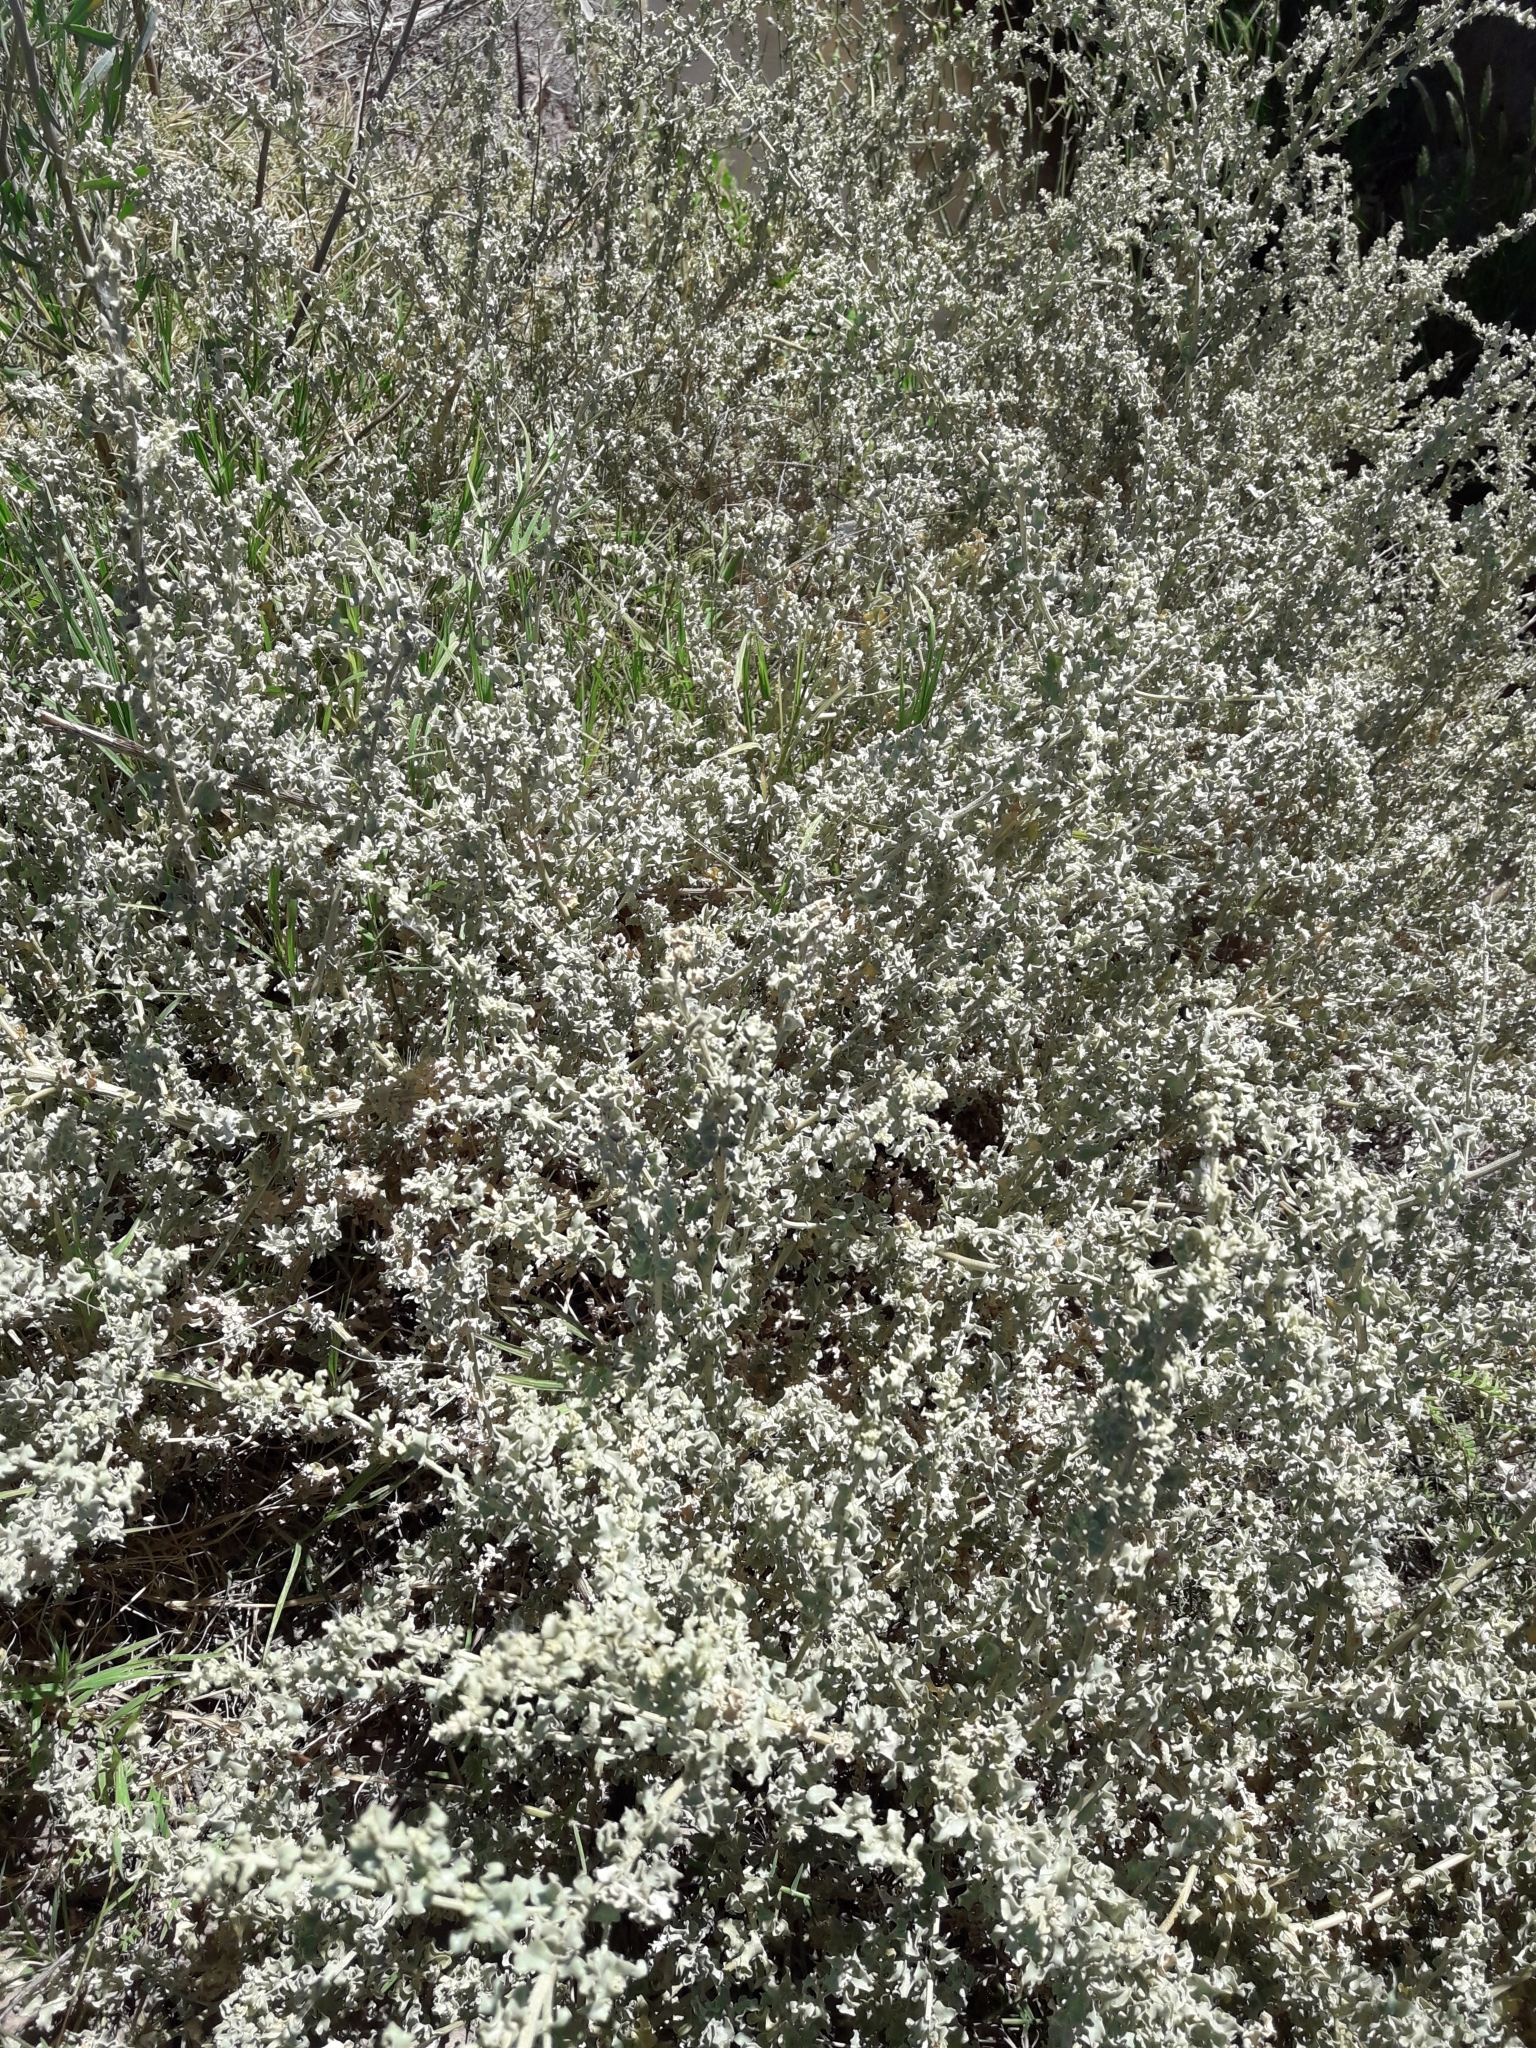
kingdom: Plantae
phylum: Tracheophyta
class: Magnoliopsida
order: Caryophyllales
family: Amaranthaceae
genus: Atriplex
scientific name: Atriplex lampa
